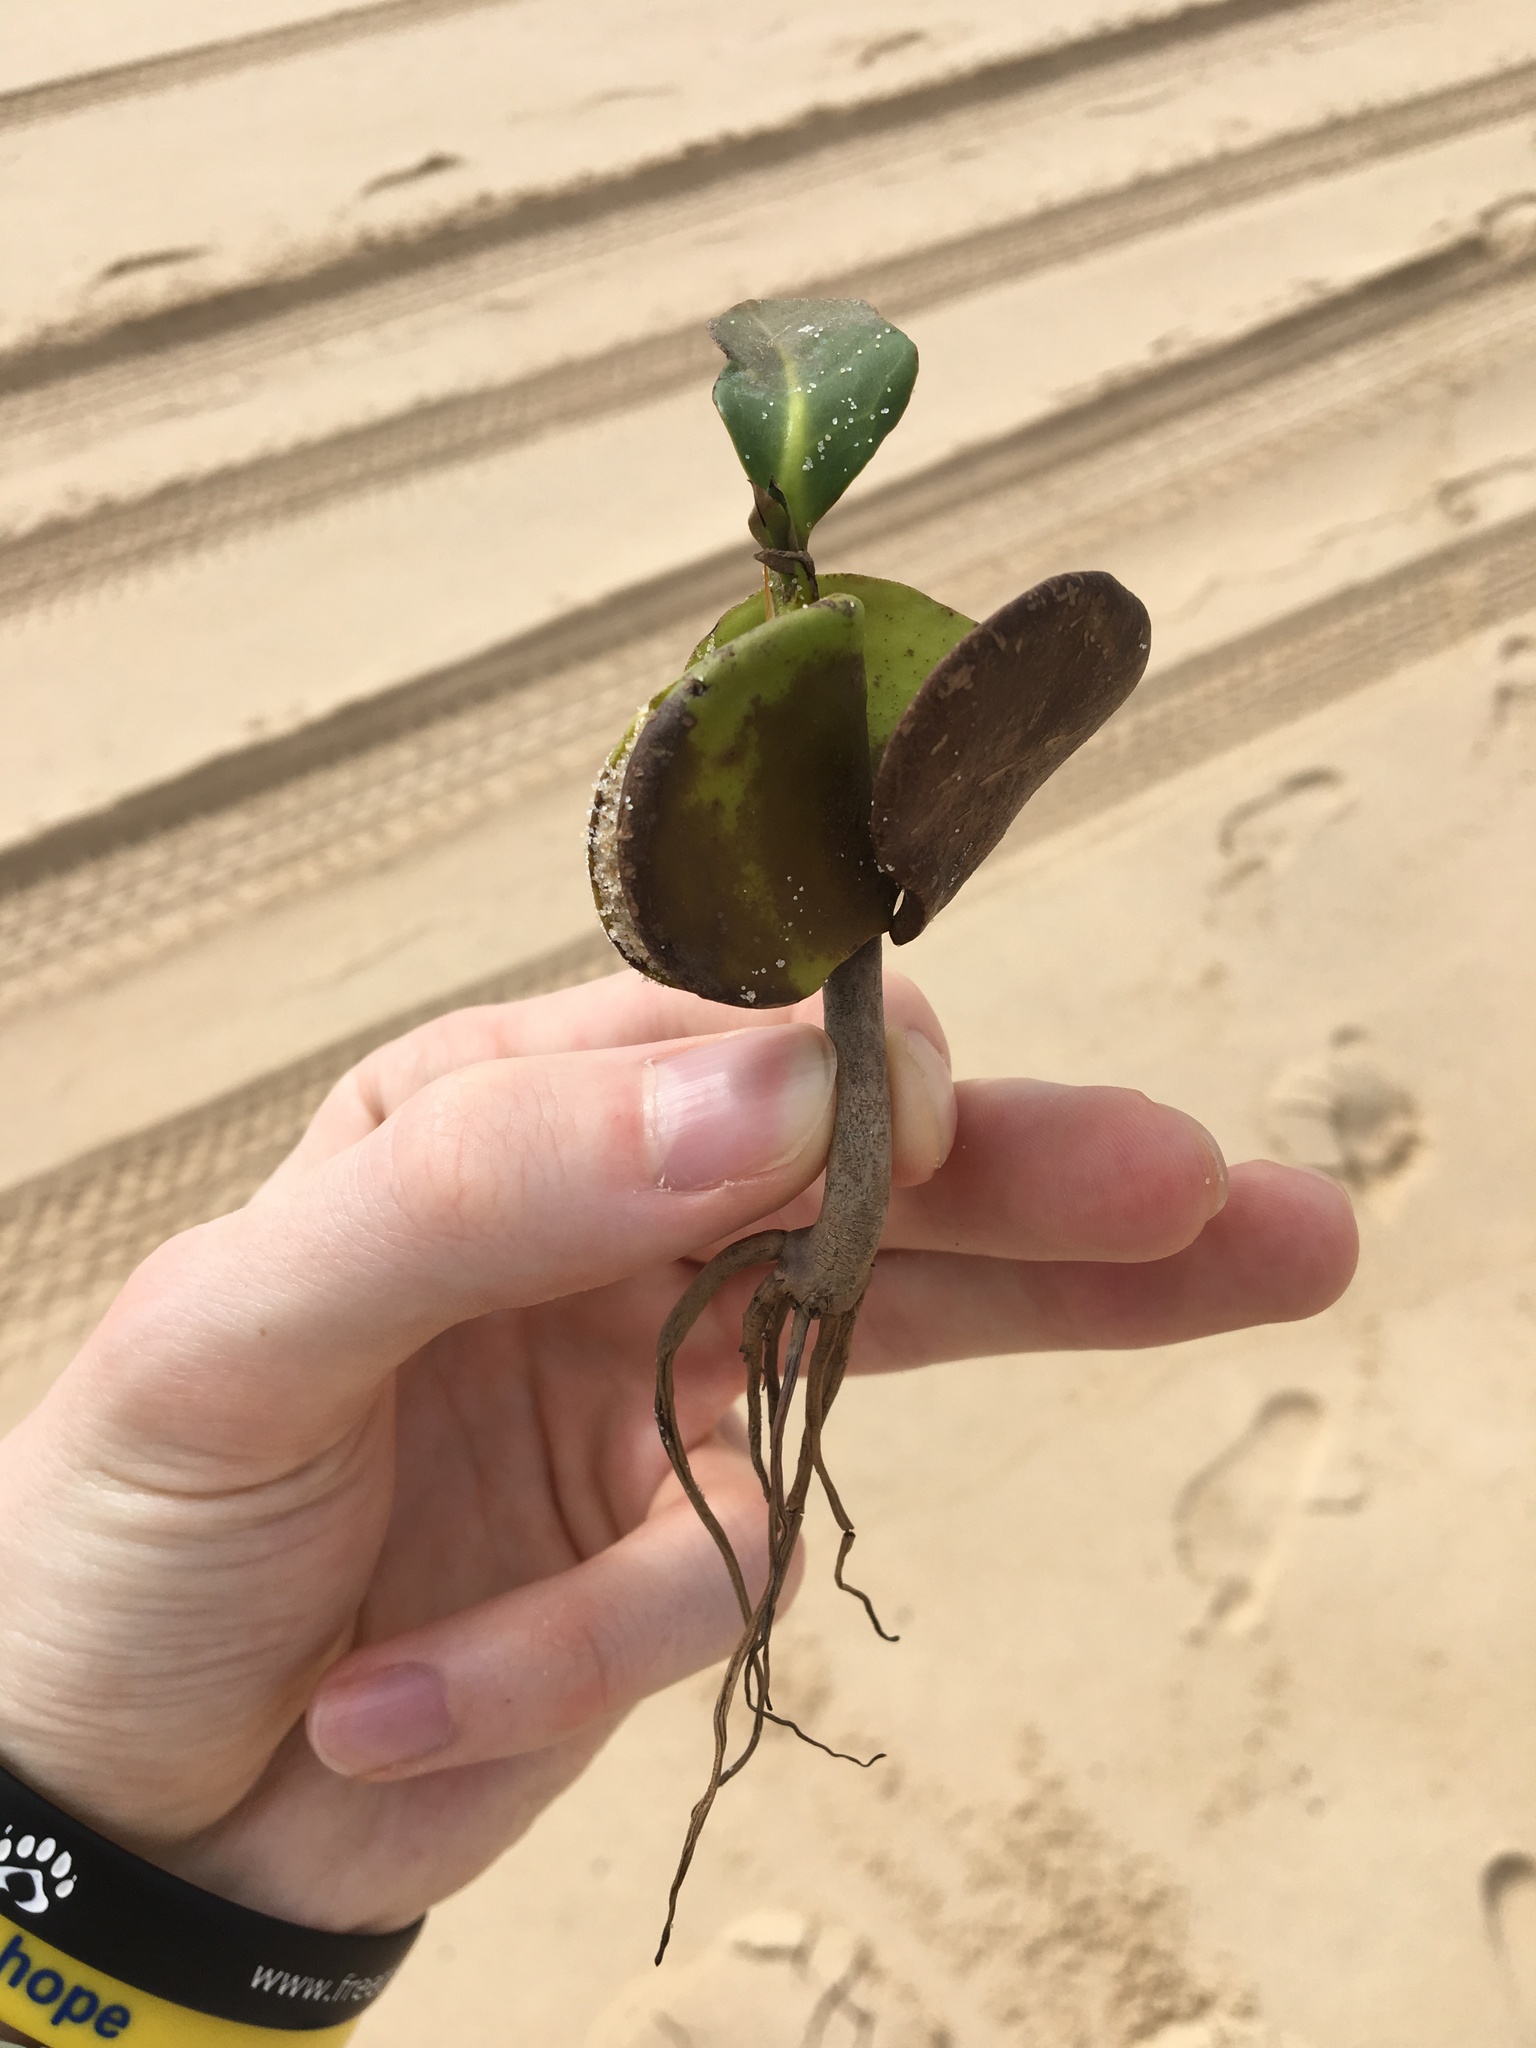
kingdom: Plantae
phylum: Tracheophyta
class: Magnoliopsida
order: Lamiales
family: Acanthaceae
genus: Avicennia
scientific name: Avicennia marina
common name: Gray mangrove
